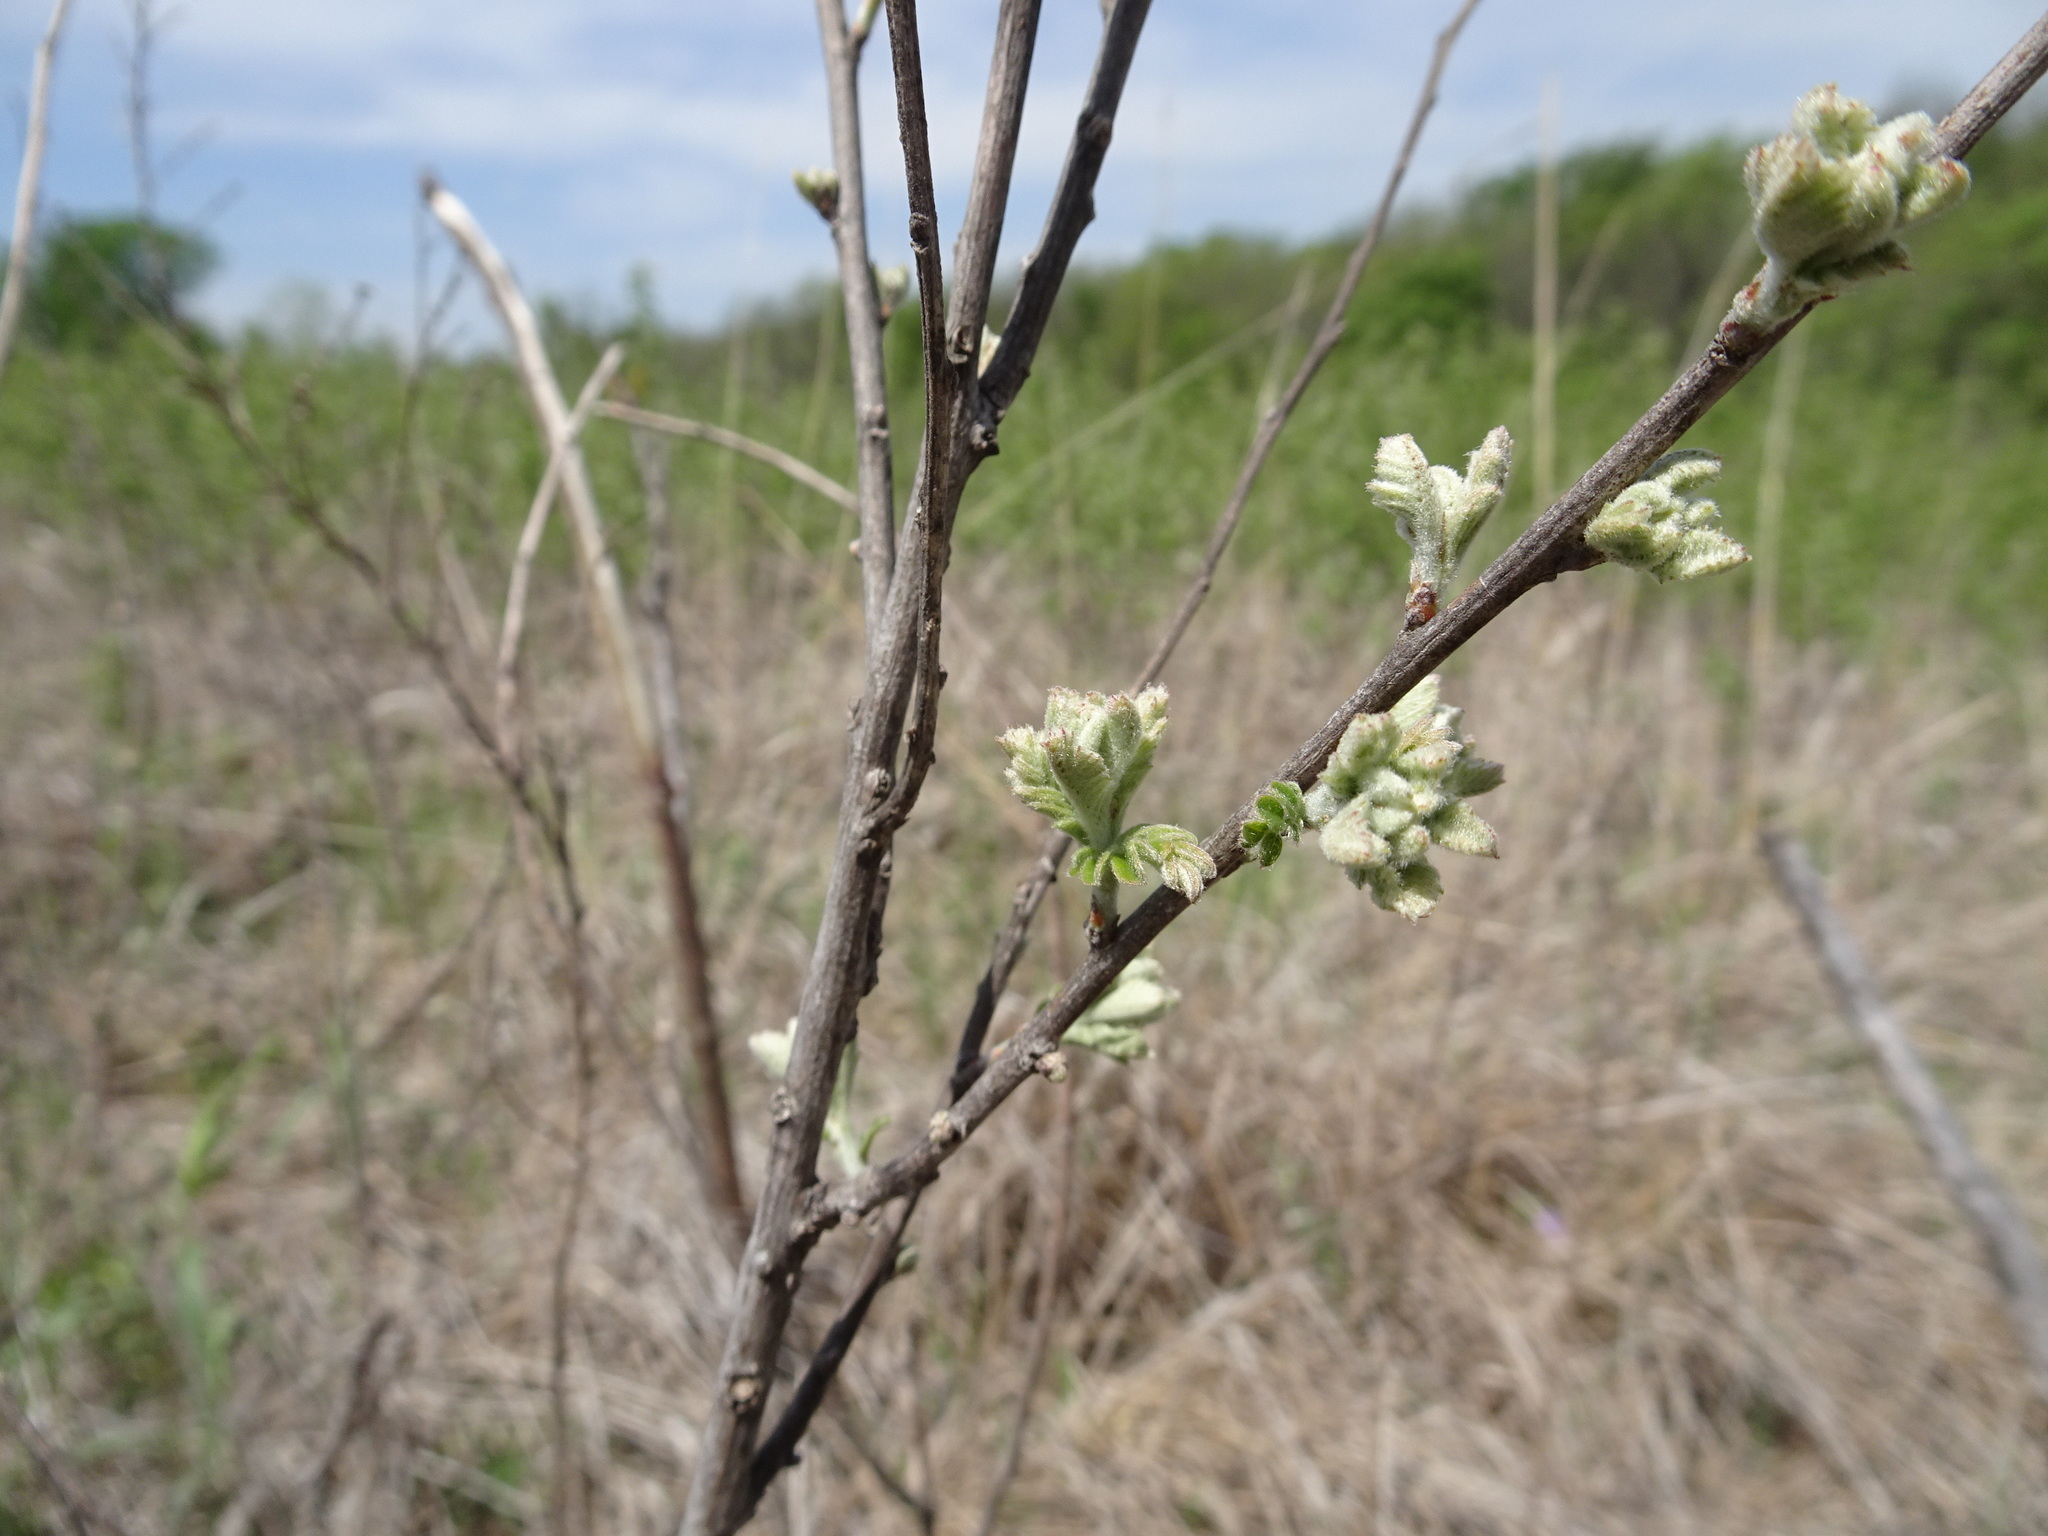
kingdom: Plantae
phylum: Tracheophyta
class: Magnoliopsida
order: Fabales
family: Fabaceae
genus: Amorpha
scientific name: Amorpha canescens
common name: Leadplant
